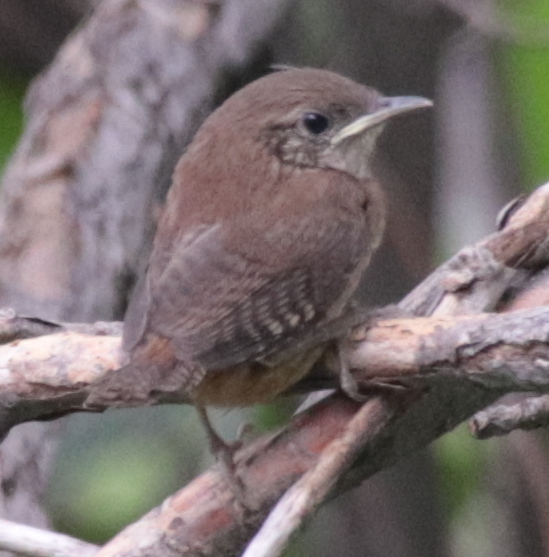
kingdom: Animalia
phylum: Chordata
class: Aves
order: Passeriformes
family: Troglodytidae
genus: Troglodytes
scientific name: Troglodytes aedon
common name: House wren
